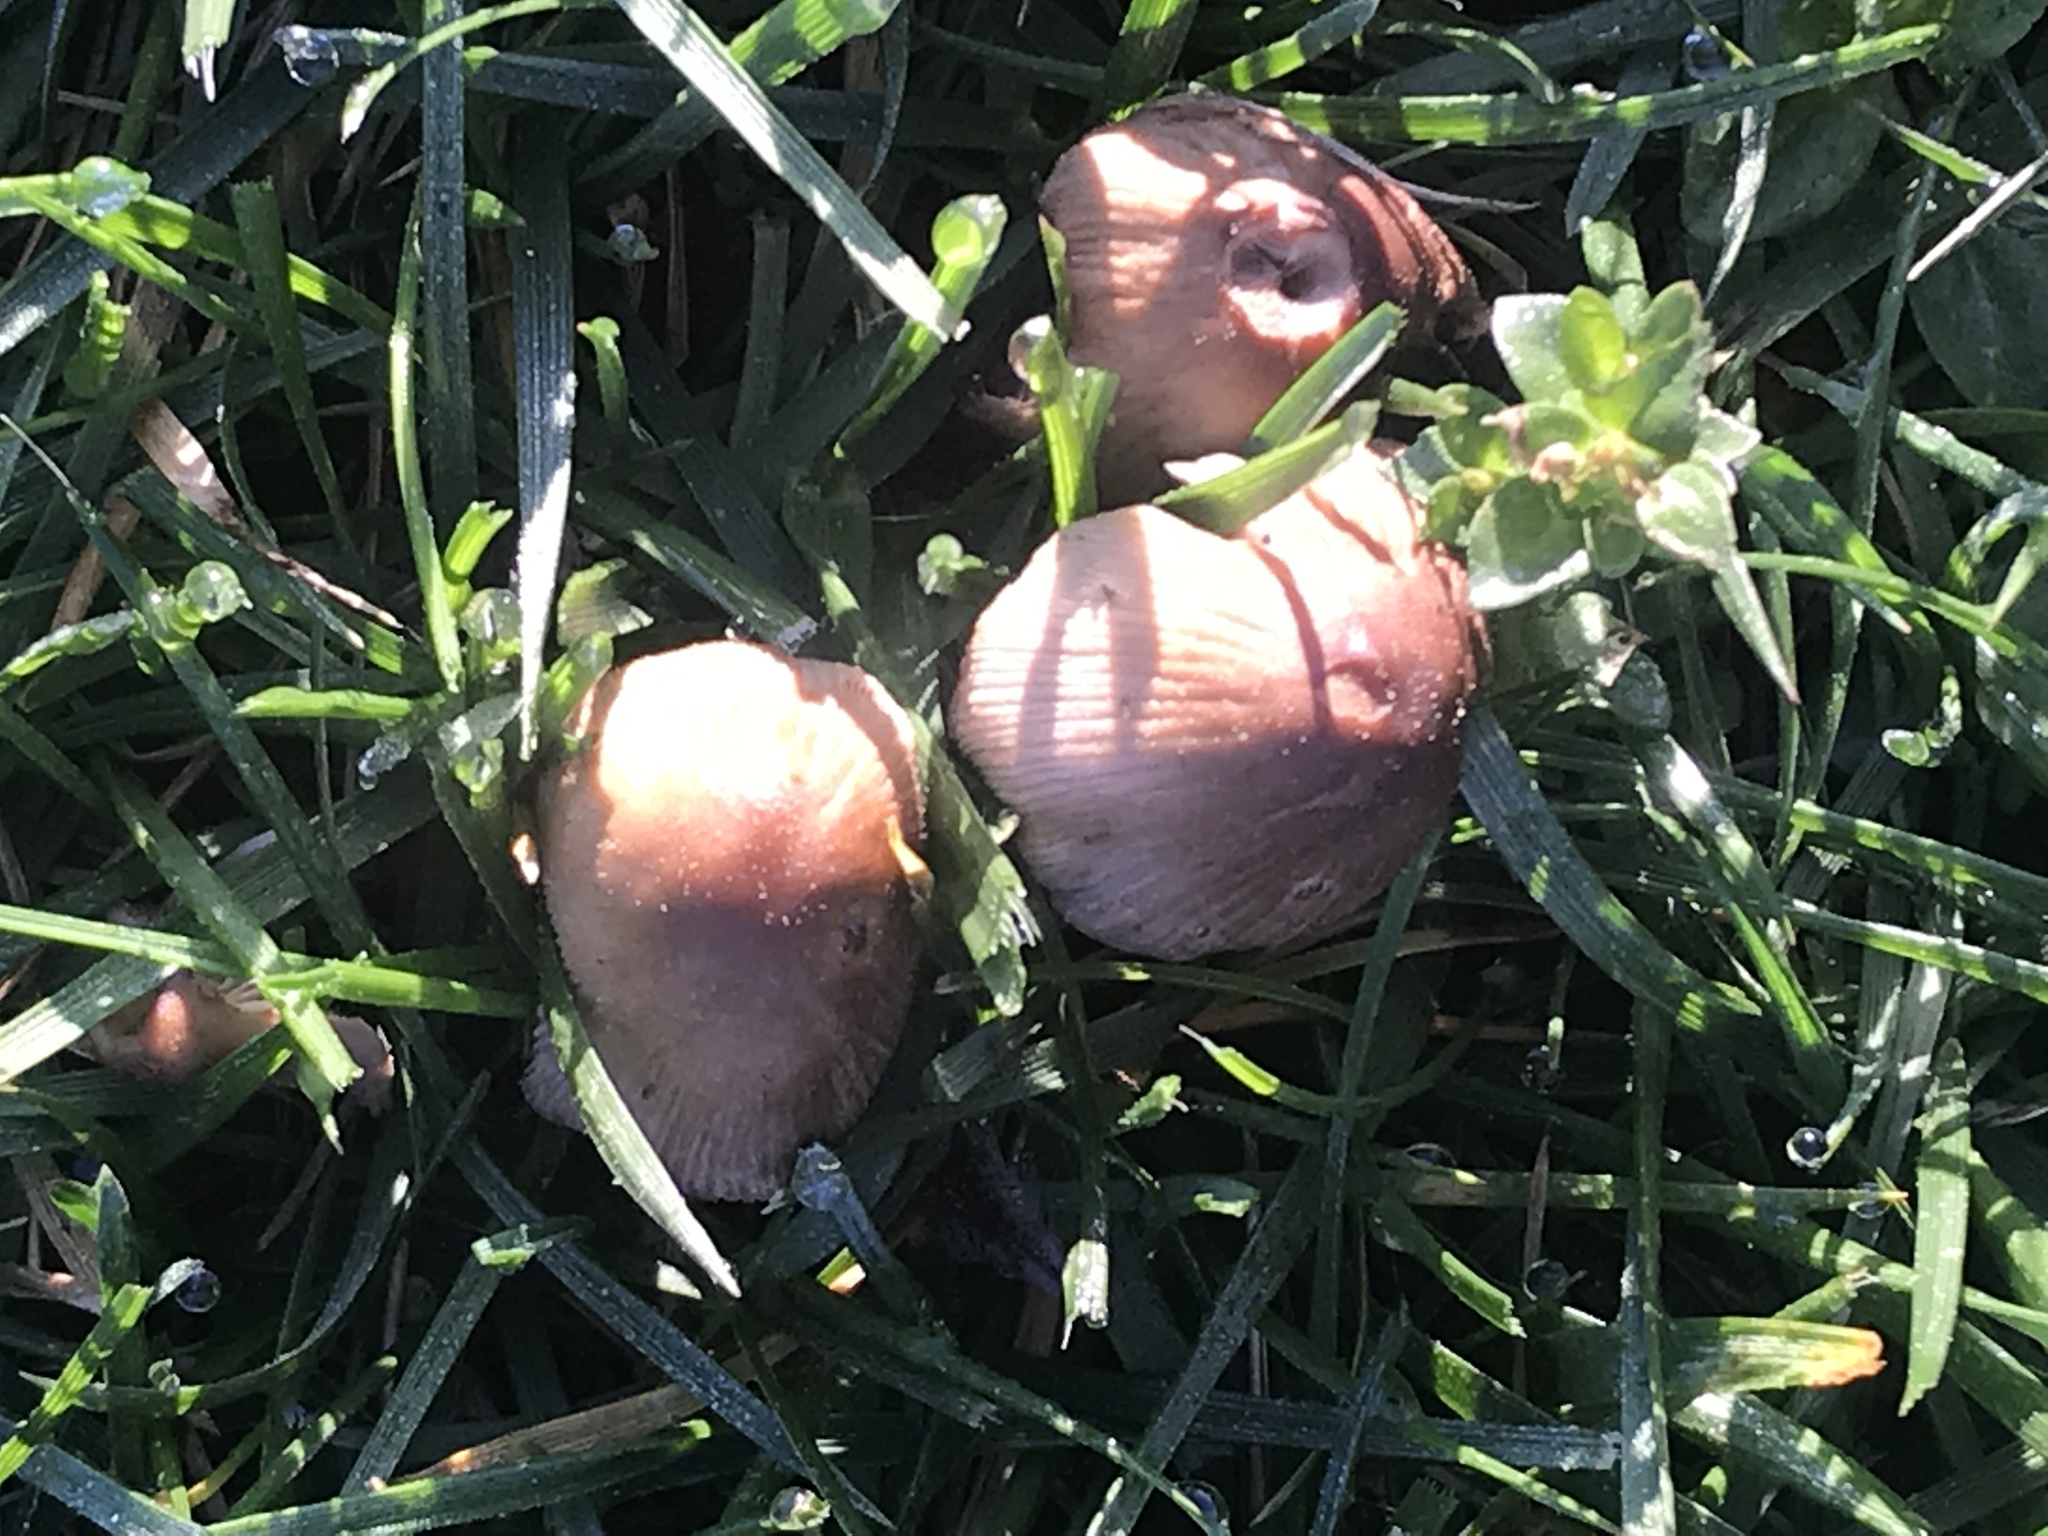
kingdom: Fungi
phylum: Basidiomycota
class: Agaricomycetes
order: Agaricales
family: Psathyrellaceae
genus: Coprinellus
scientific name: Coprinellus micaceus
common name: Glistening ink-cap
